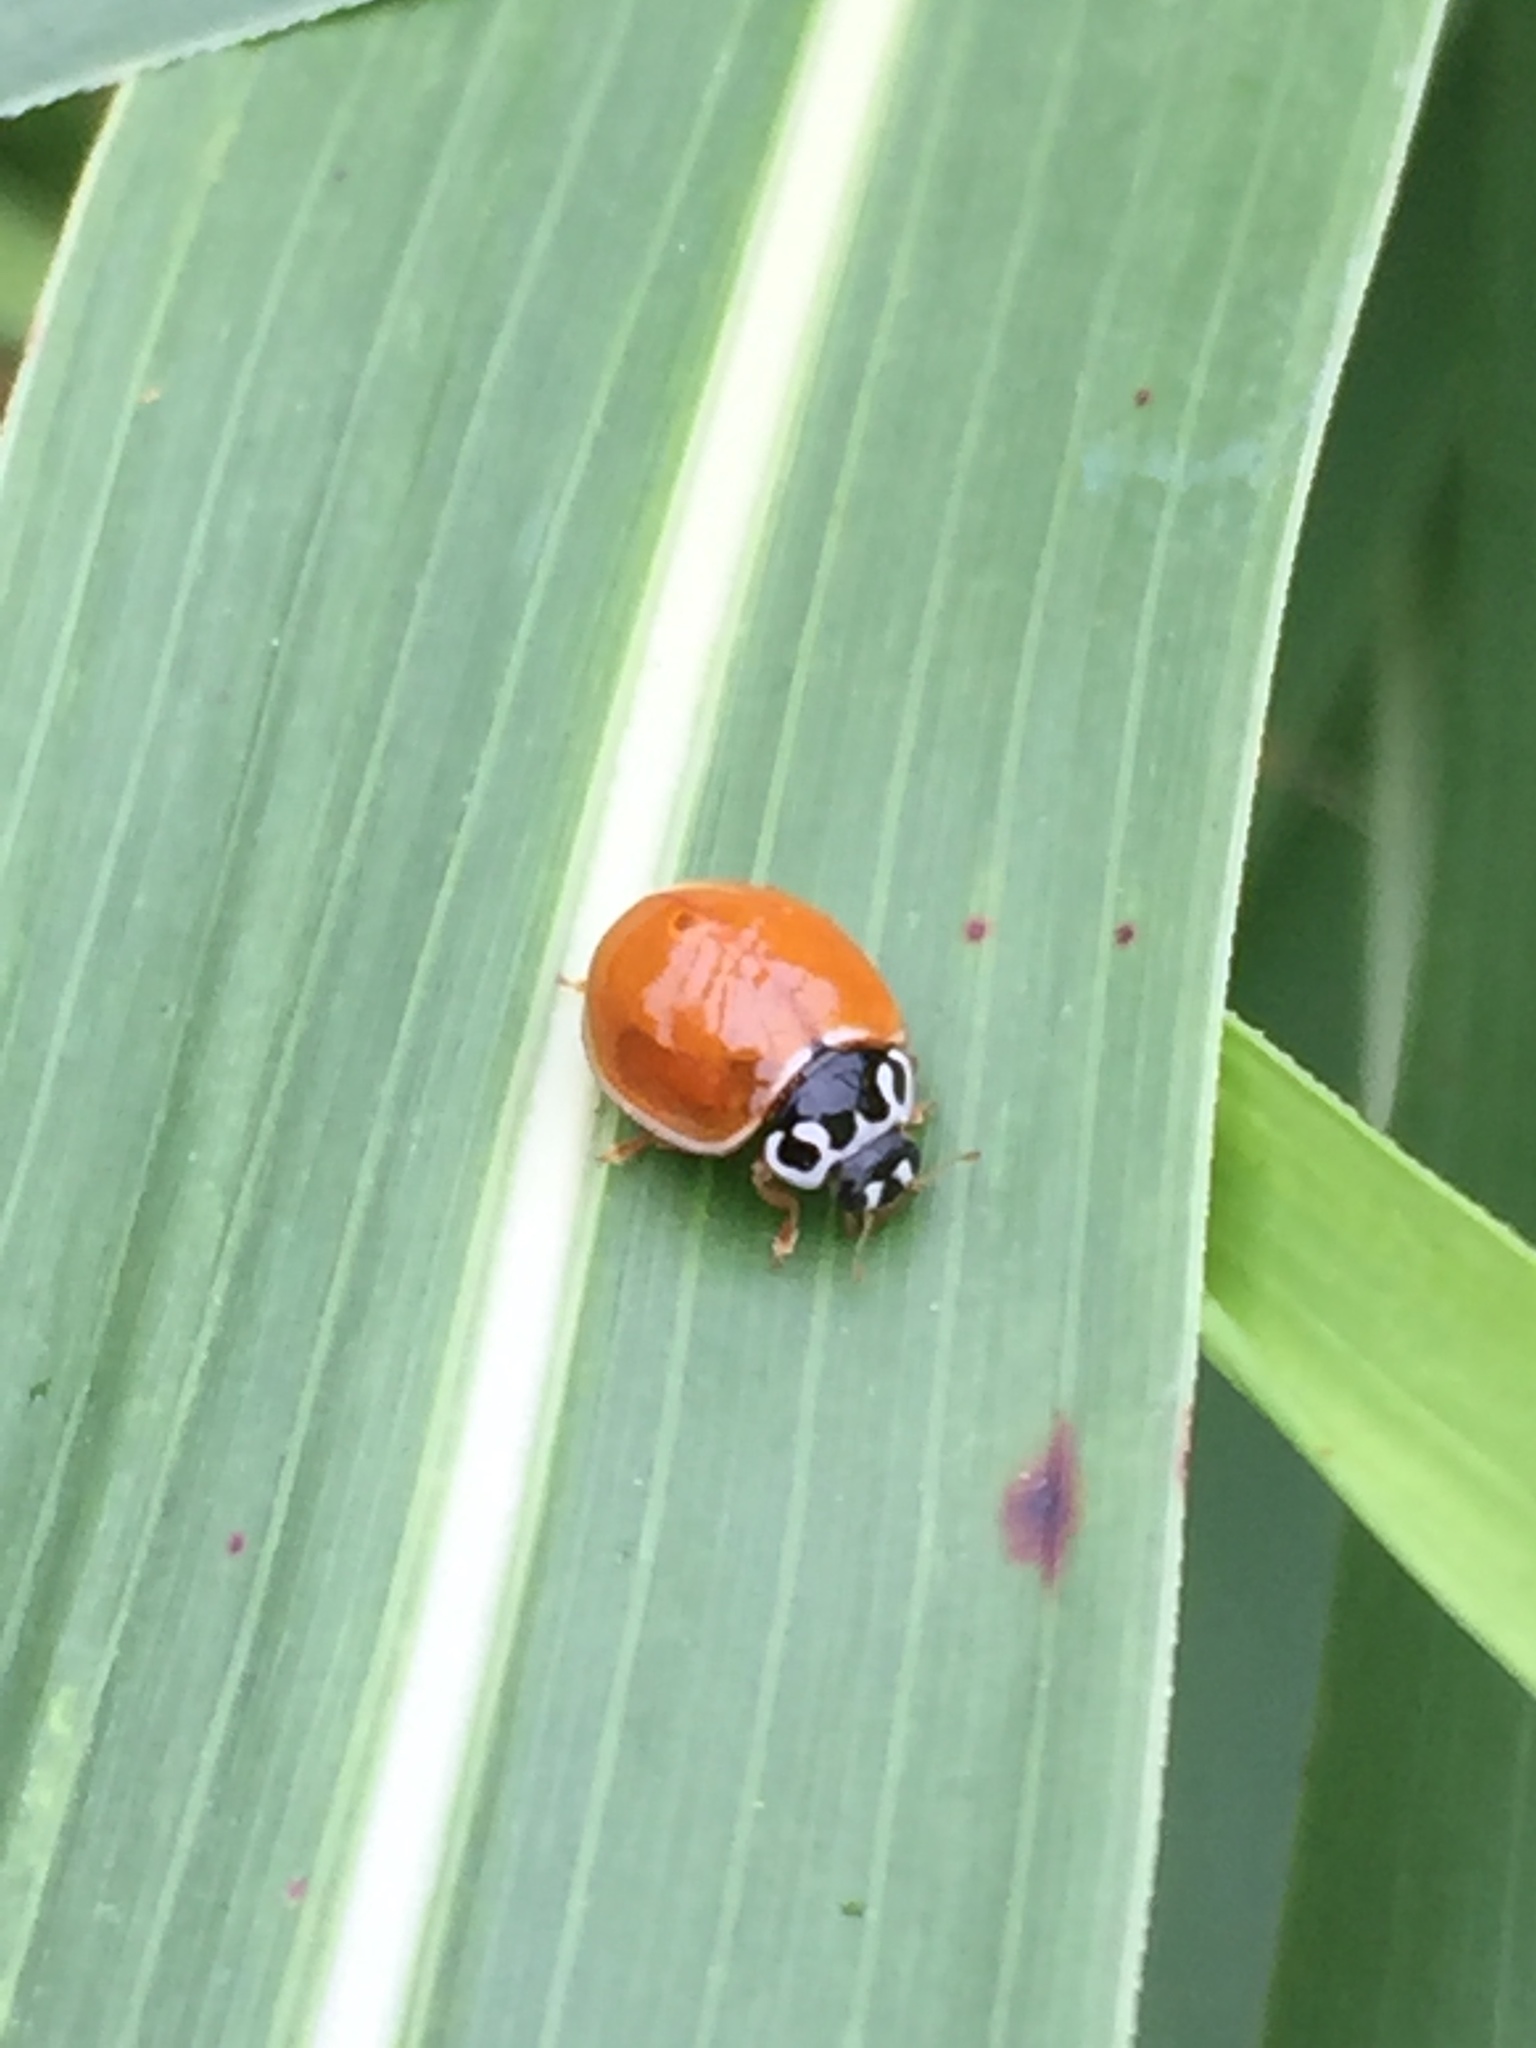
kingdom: Animalia
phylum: Arthropoda
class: Insecta
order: Coleoptera
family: Coccinellidae
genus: Cycloneda
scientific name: Cycloneda munda
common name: Polished lady beetle
